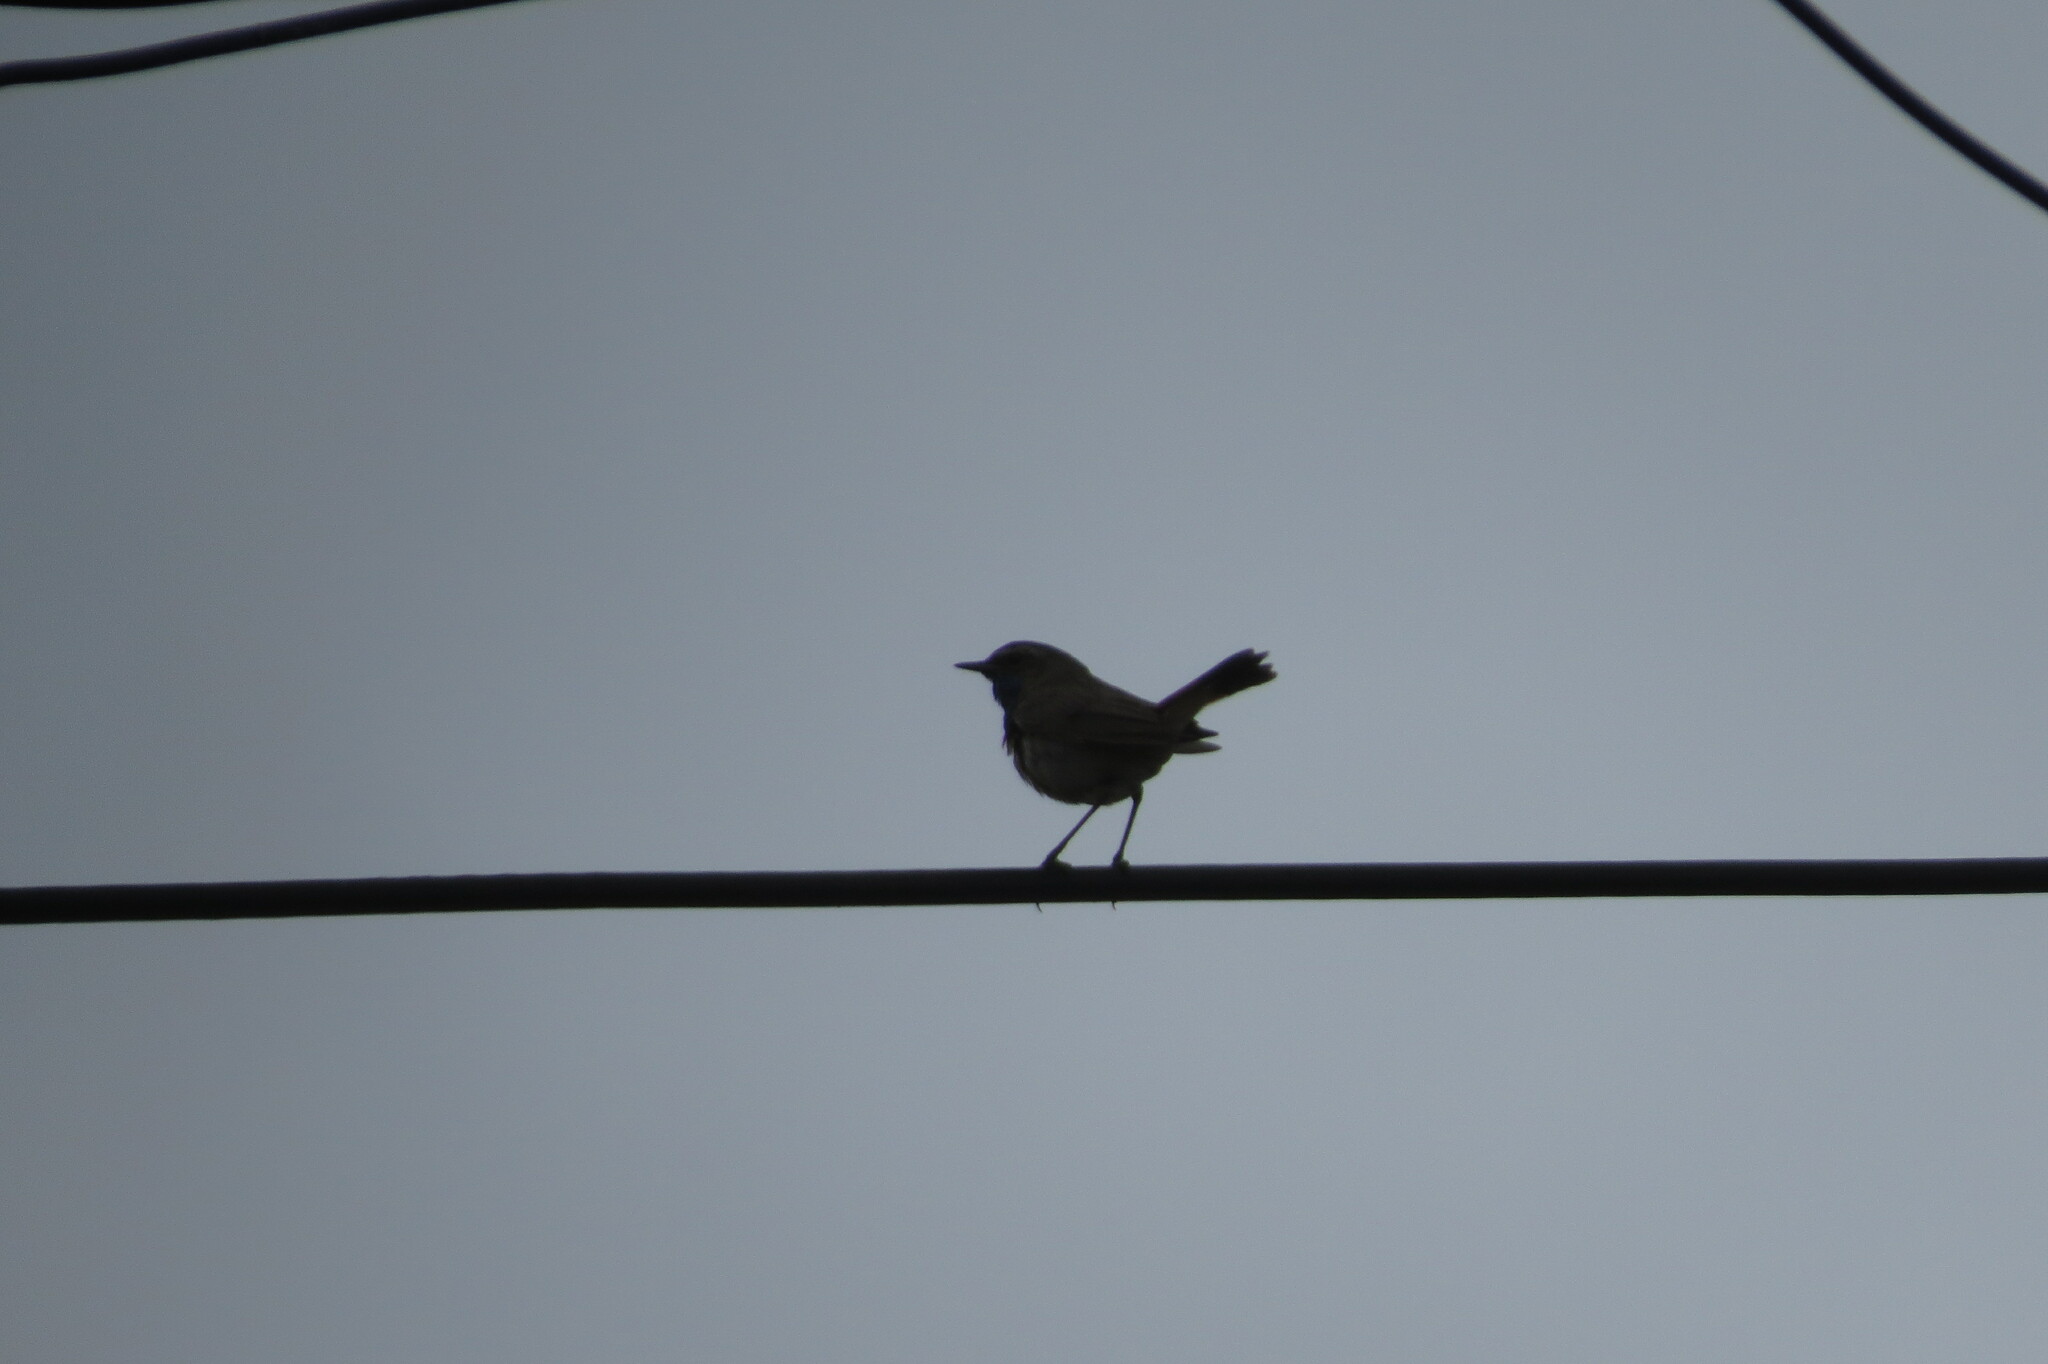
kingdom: Animalia
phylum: Chordata
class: Aves
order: Passeriformes
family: Muscicapidae
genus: Luscinia
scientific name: Luscinia svecica
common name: Bluethroat
